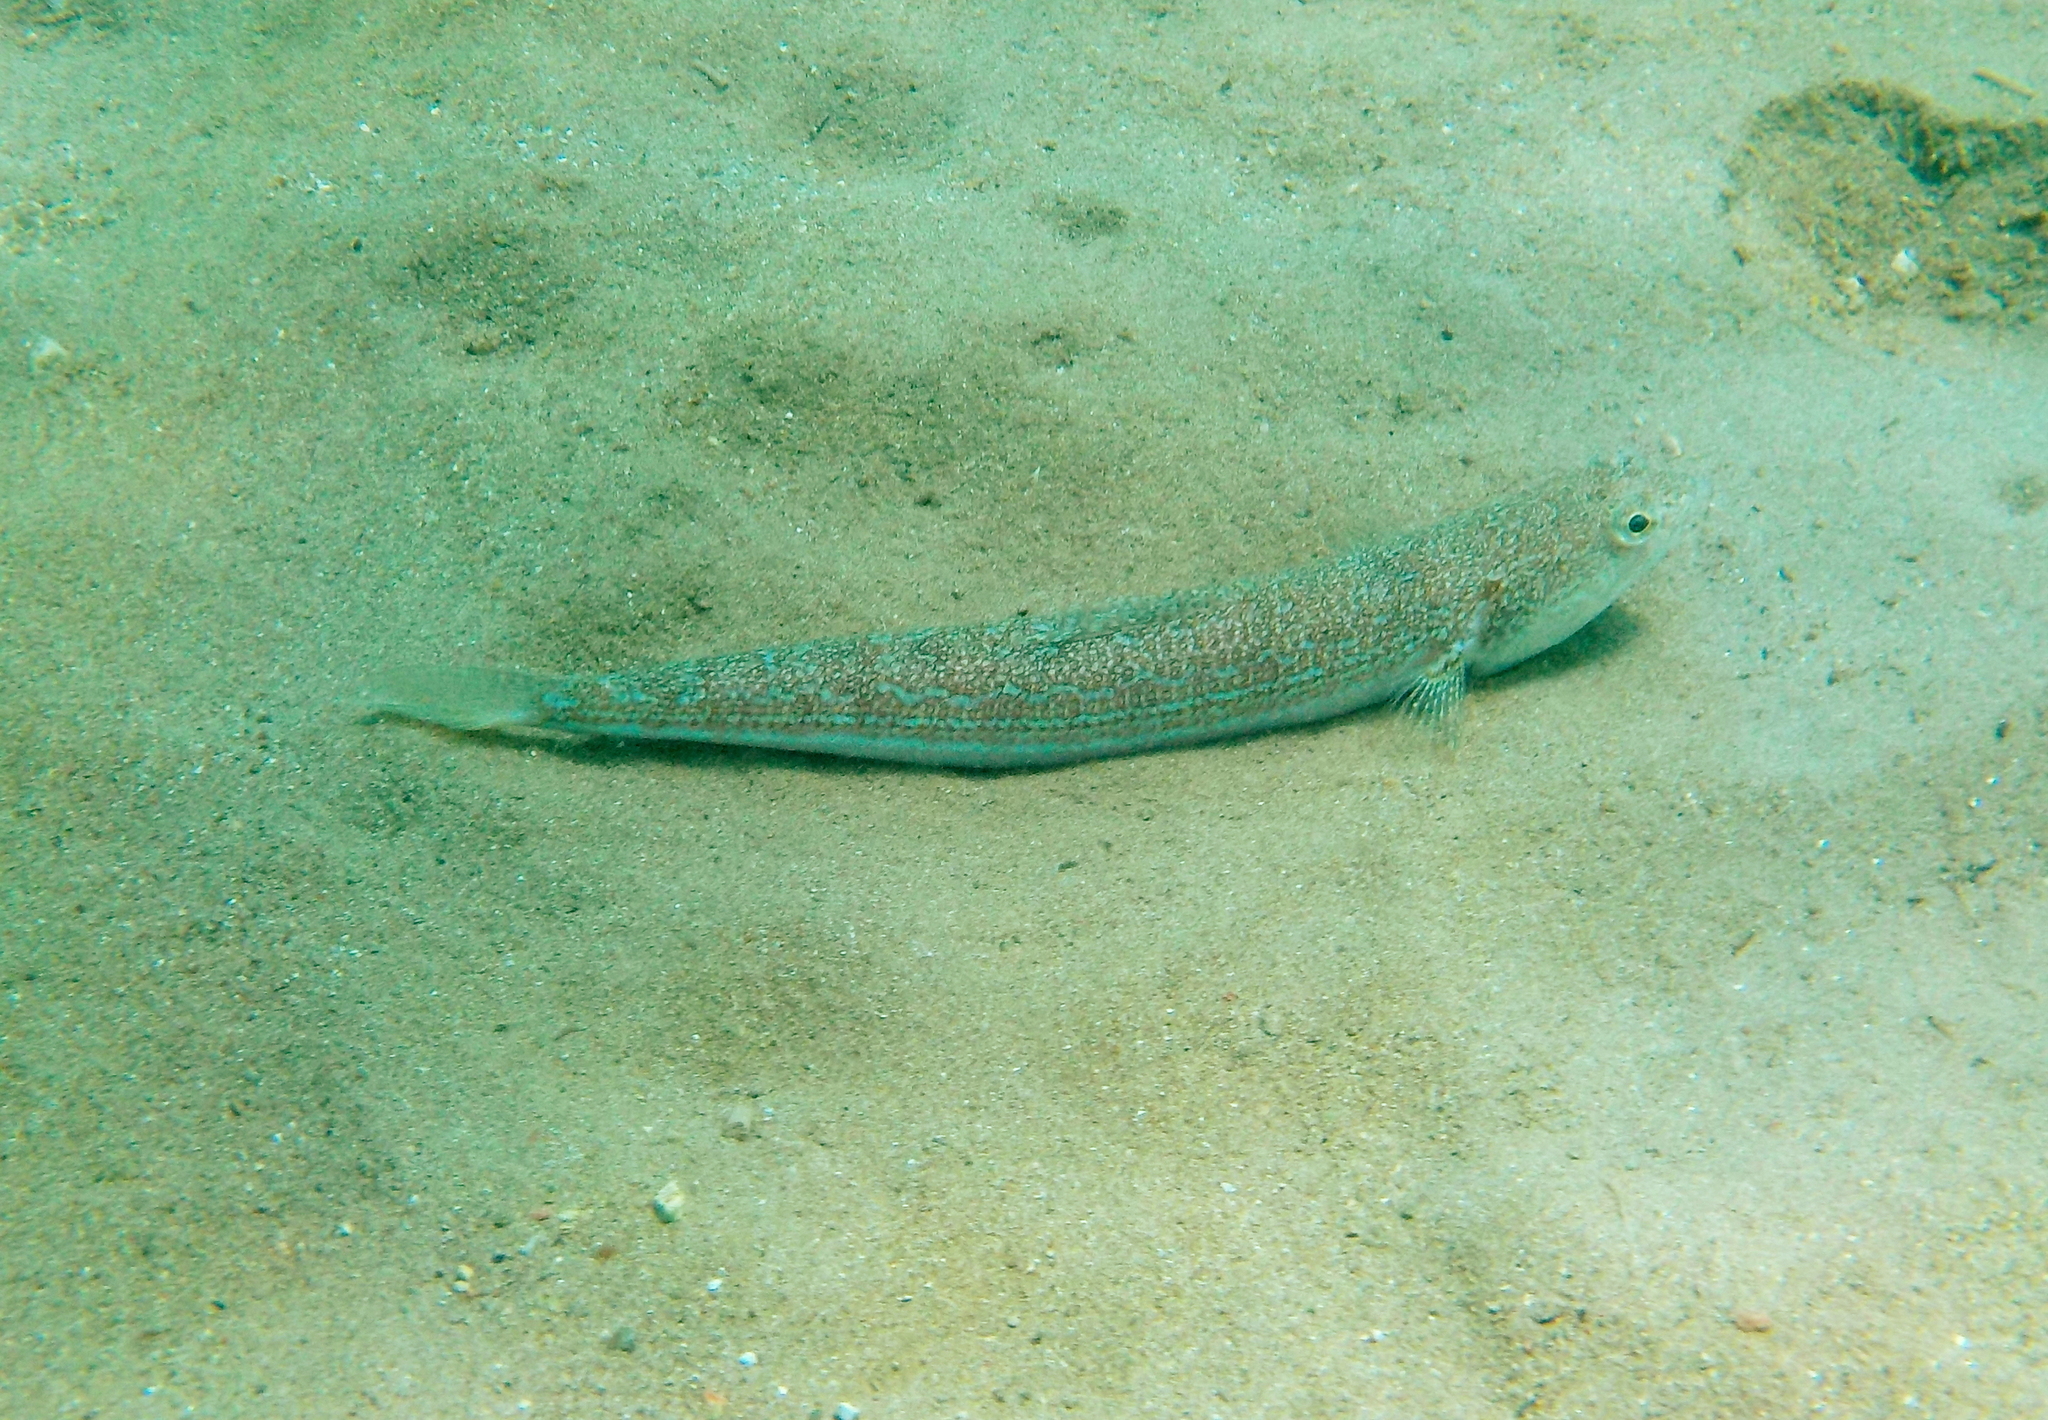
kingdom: Animalia
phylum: Chordata
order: Aulopiformes
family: Synodontidae
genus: Synodus
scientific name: Synodus saurus
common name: Atlantic lizardfish
